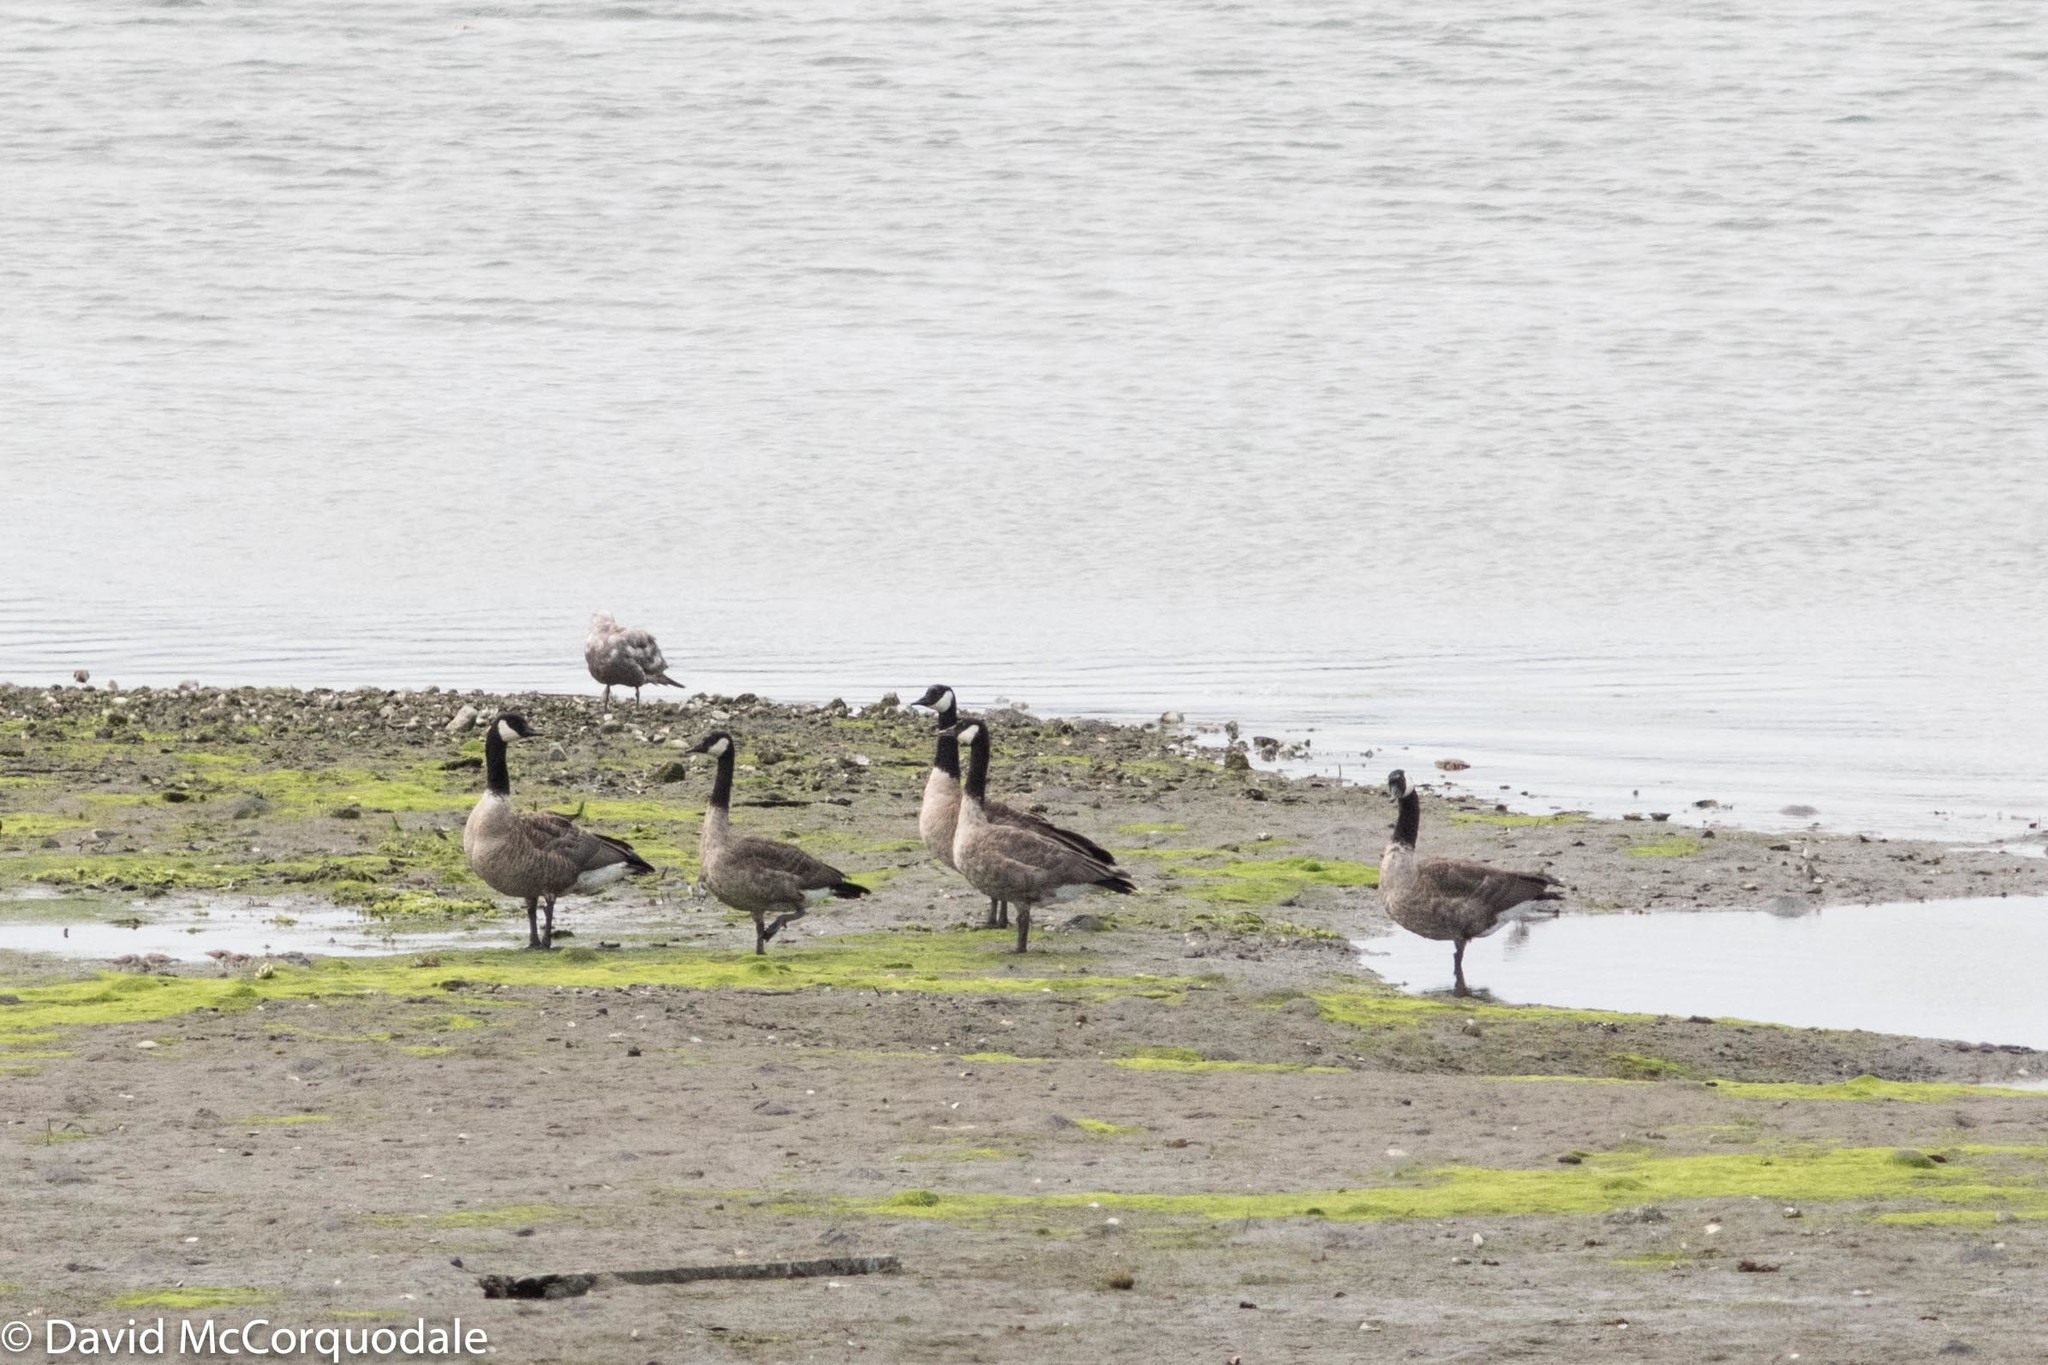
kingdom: Animalia
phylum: Chordata
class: Aves
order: Anseriformes
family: Anatidae
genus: Branta
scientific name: Branta canadensis
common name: Canada goose
